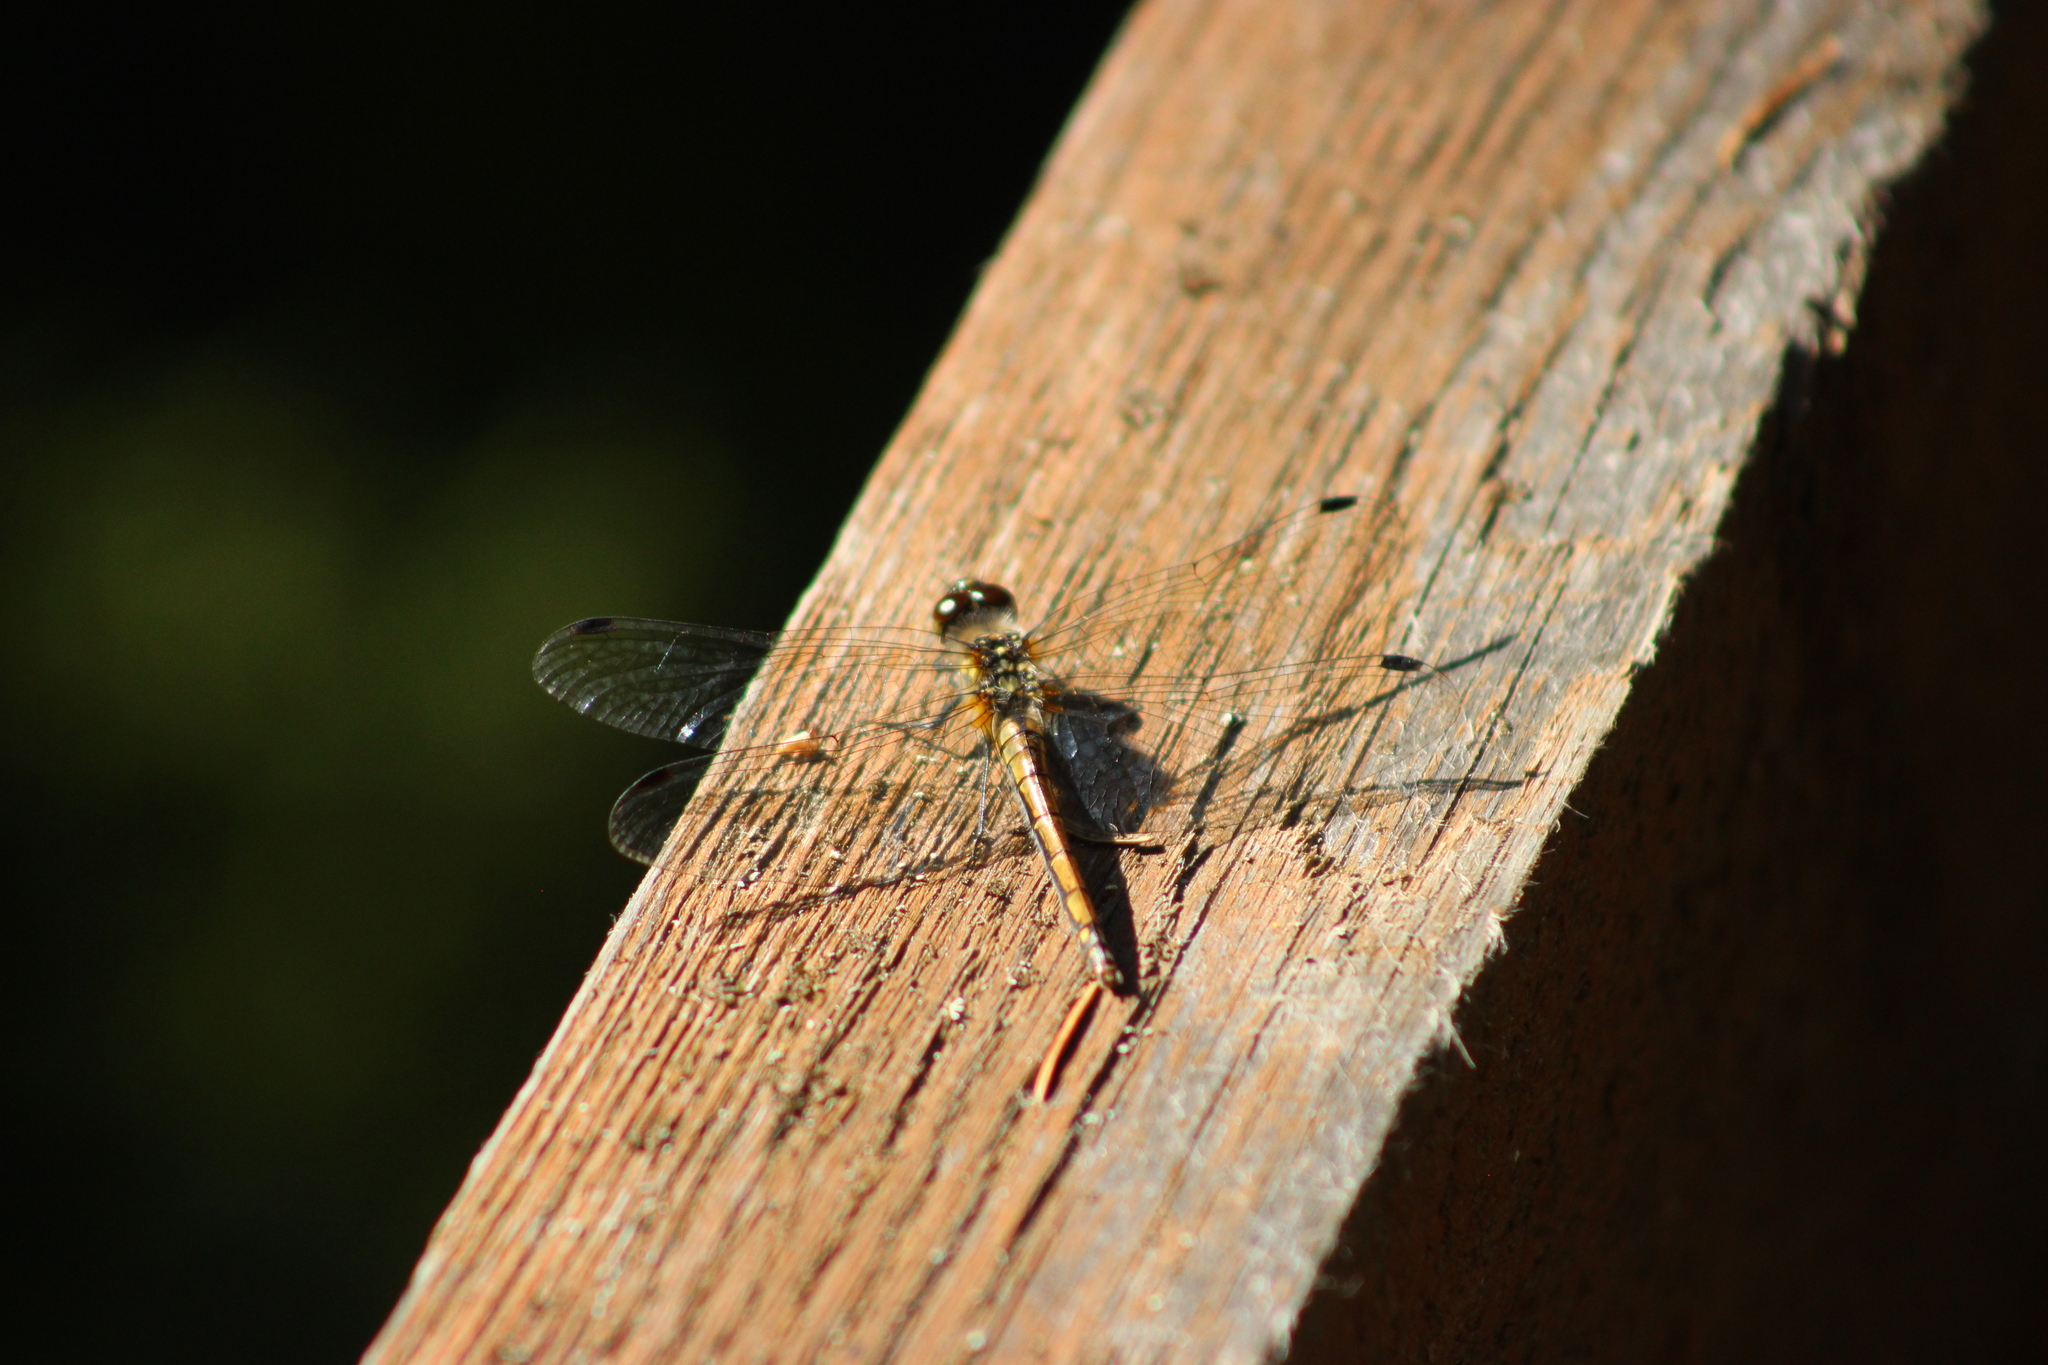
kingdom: Animalia
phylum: Arthropoda
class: Insecta
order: Odonata
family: Libellulidae
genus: Sympetrum
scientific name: Sympetrum danae
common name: Black darter
